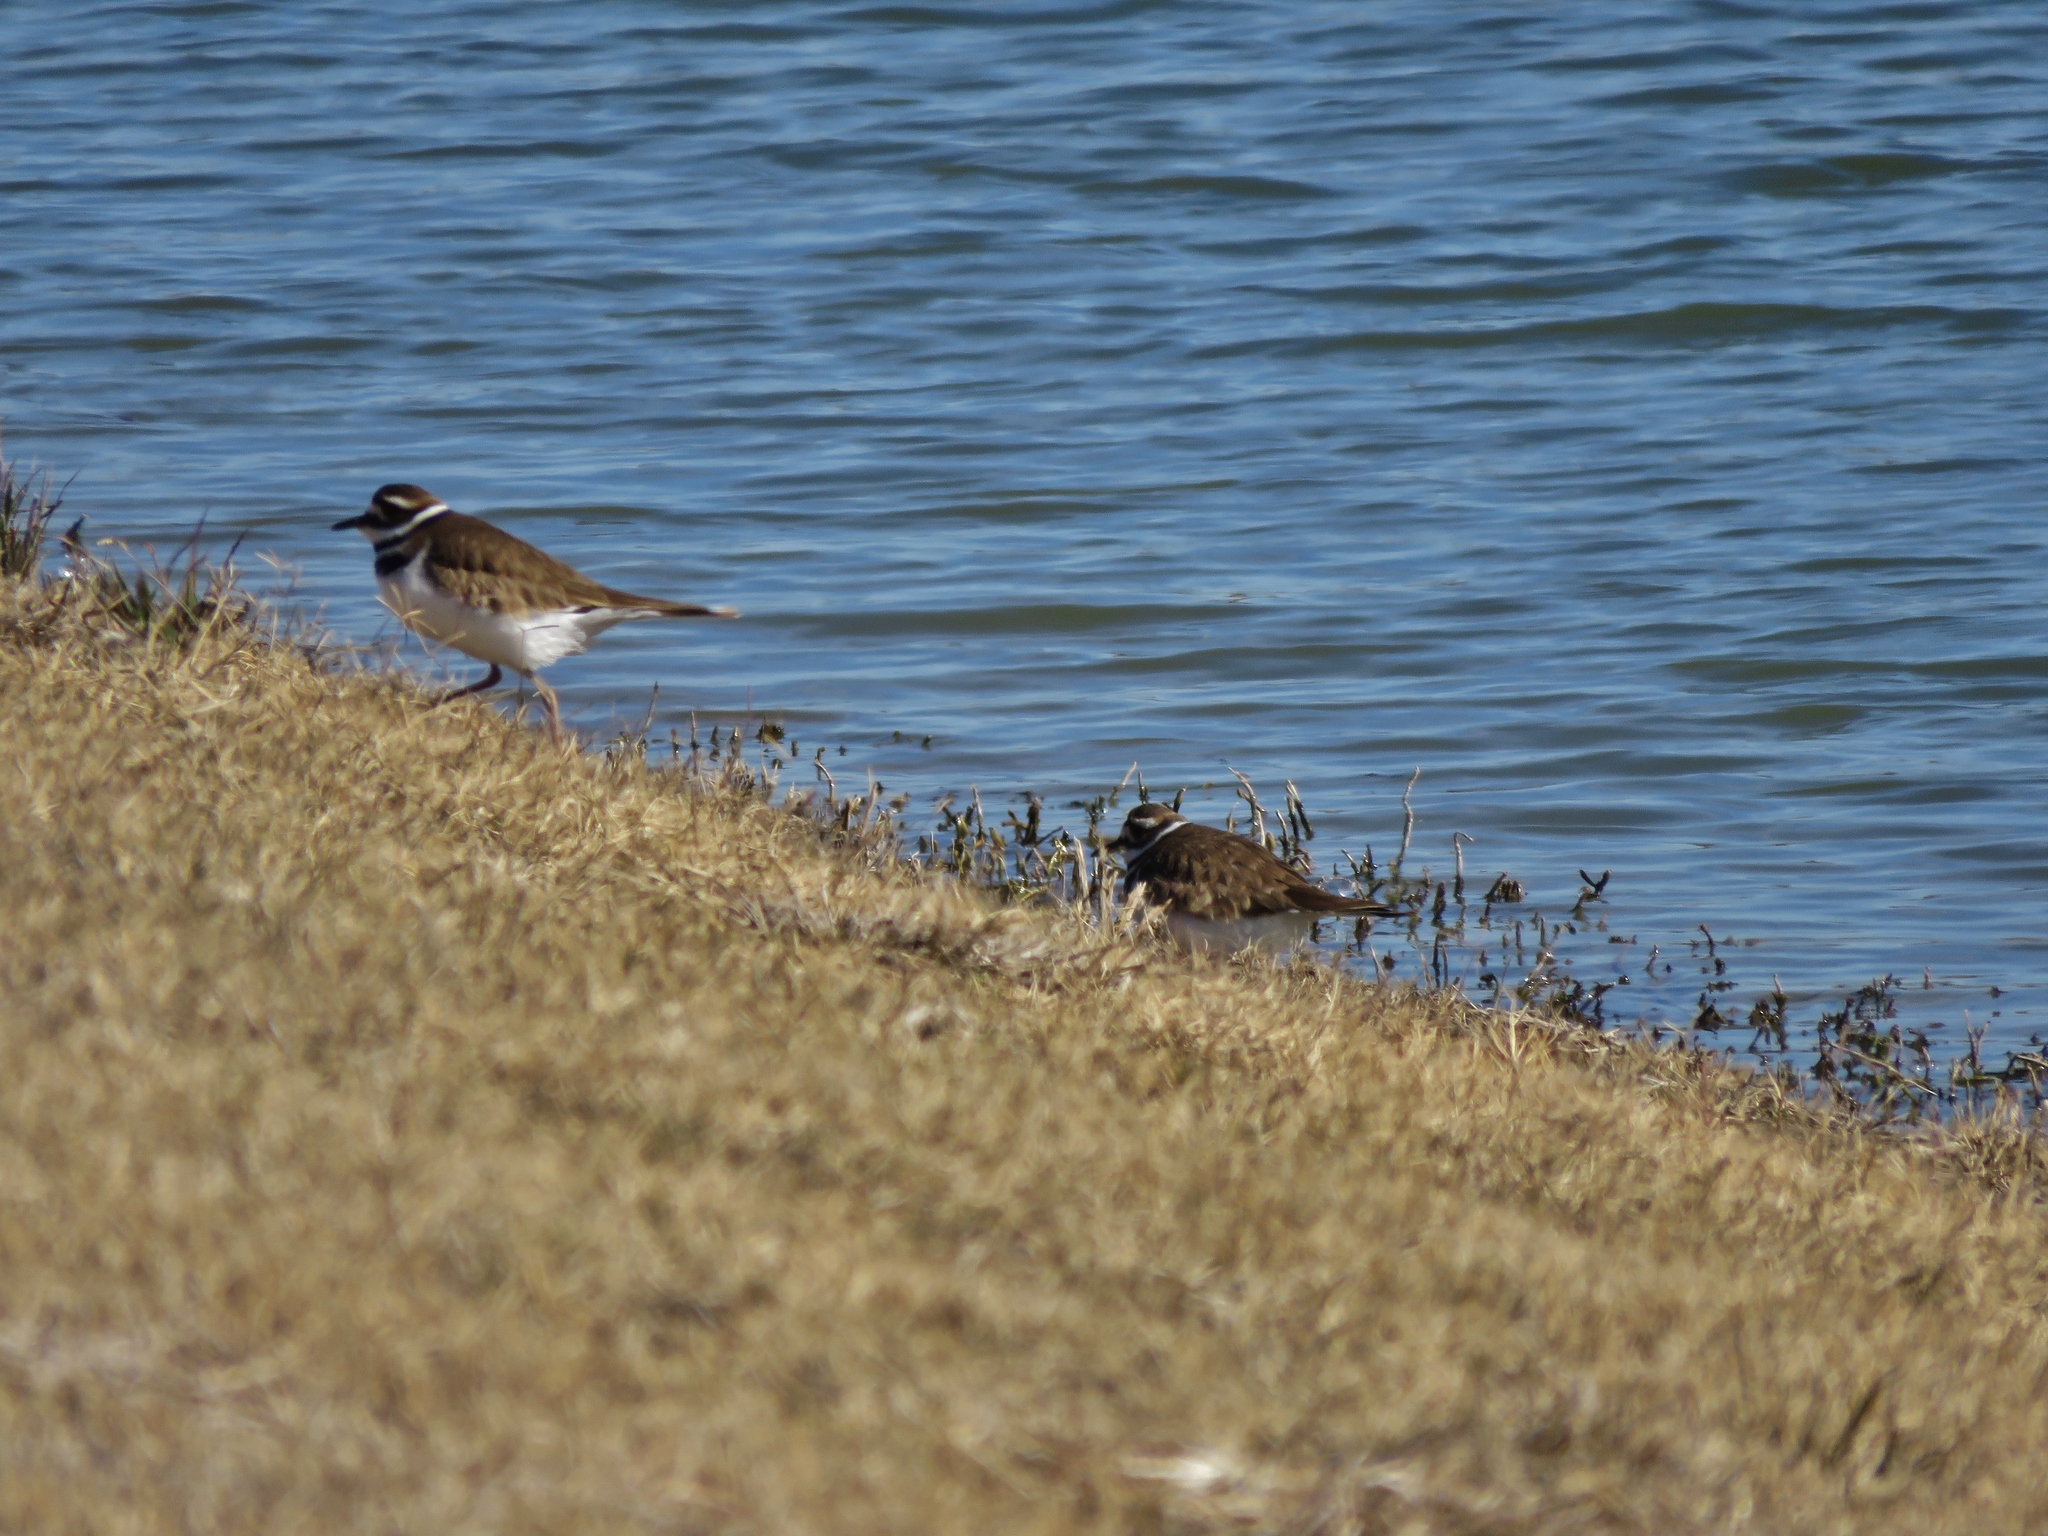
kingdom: Animalia
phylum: Chordata
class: Aves
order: Charadriiformes
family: Charadriidae
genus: Charadrius
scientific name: Charadrius vociferus
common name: Killdeer
